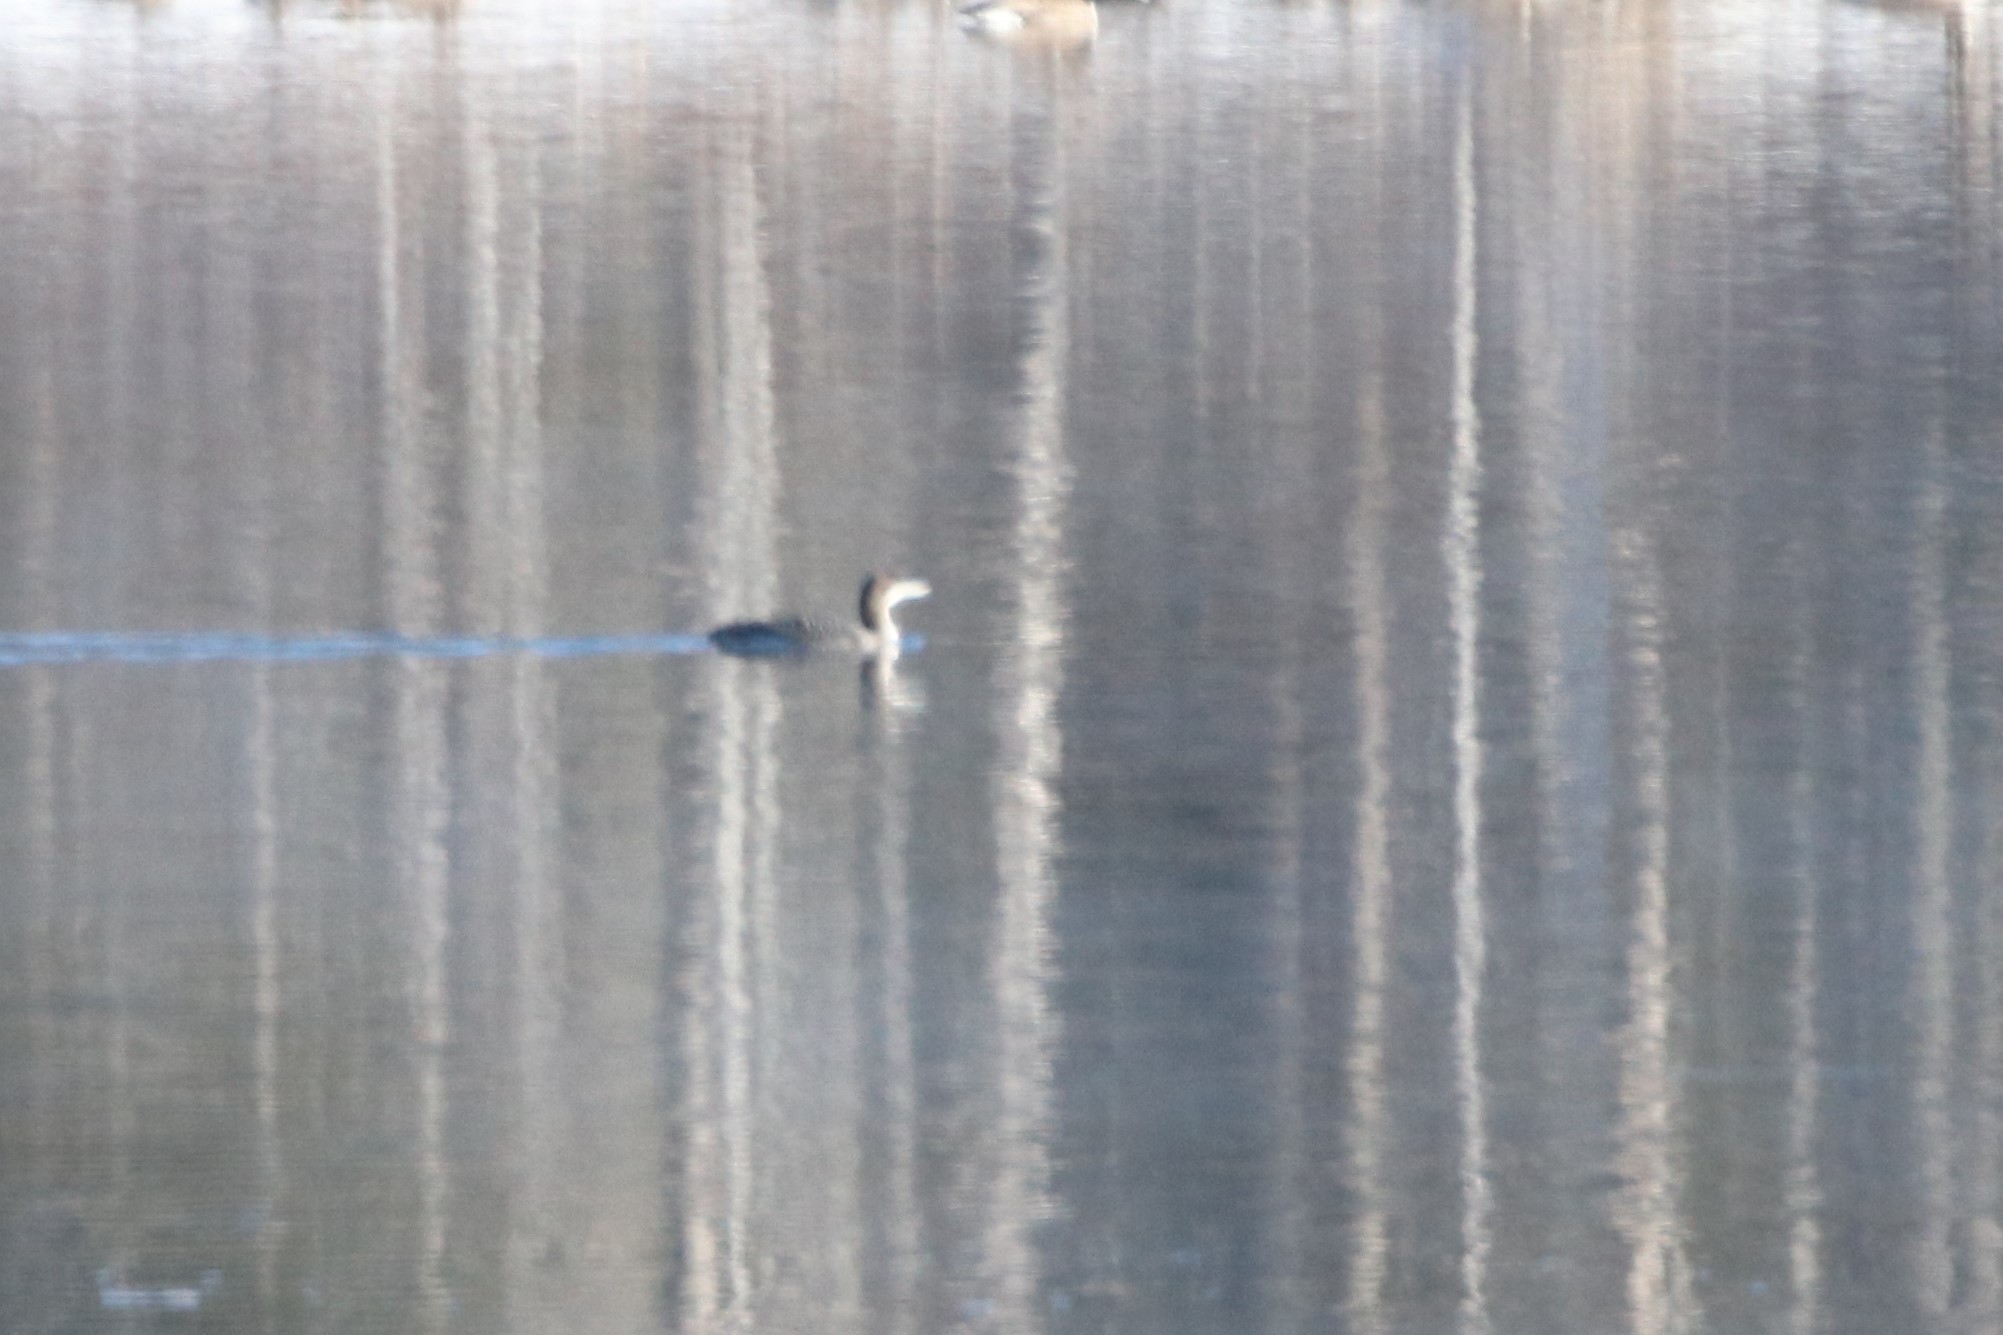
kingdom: Animalia
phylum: Chordata
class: Aves
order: Gaviiformes
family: Gaviidae
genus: Gavia
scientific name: Gavia immer
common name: Common loon
